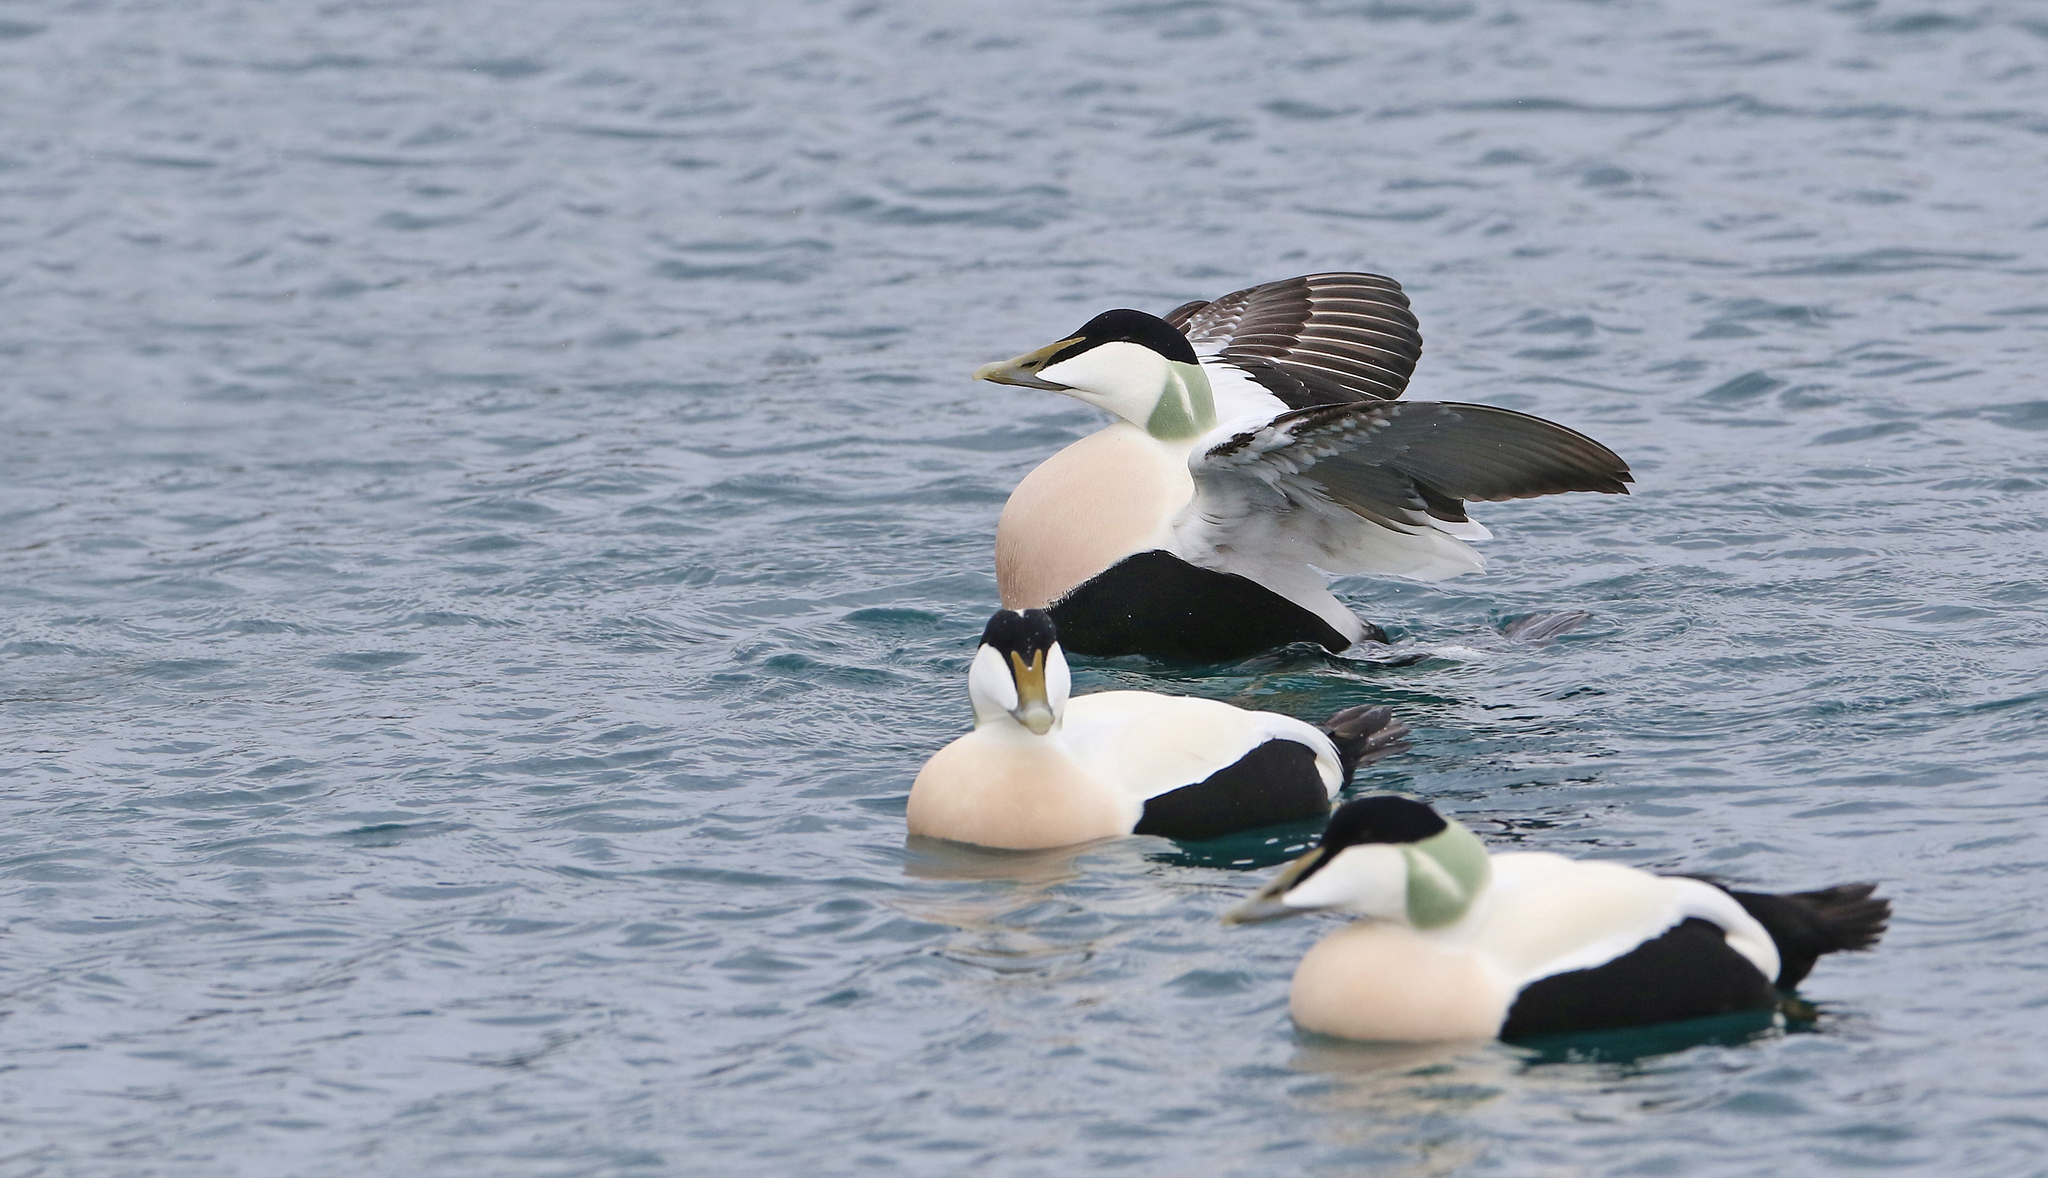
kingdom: Animalia
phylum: Chordata
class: Aves
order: Anseriformes
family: Anatidae
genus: Somateria
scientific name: Somateria mollissima
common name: Common eider
